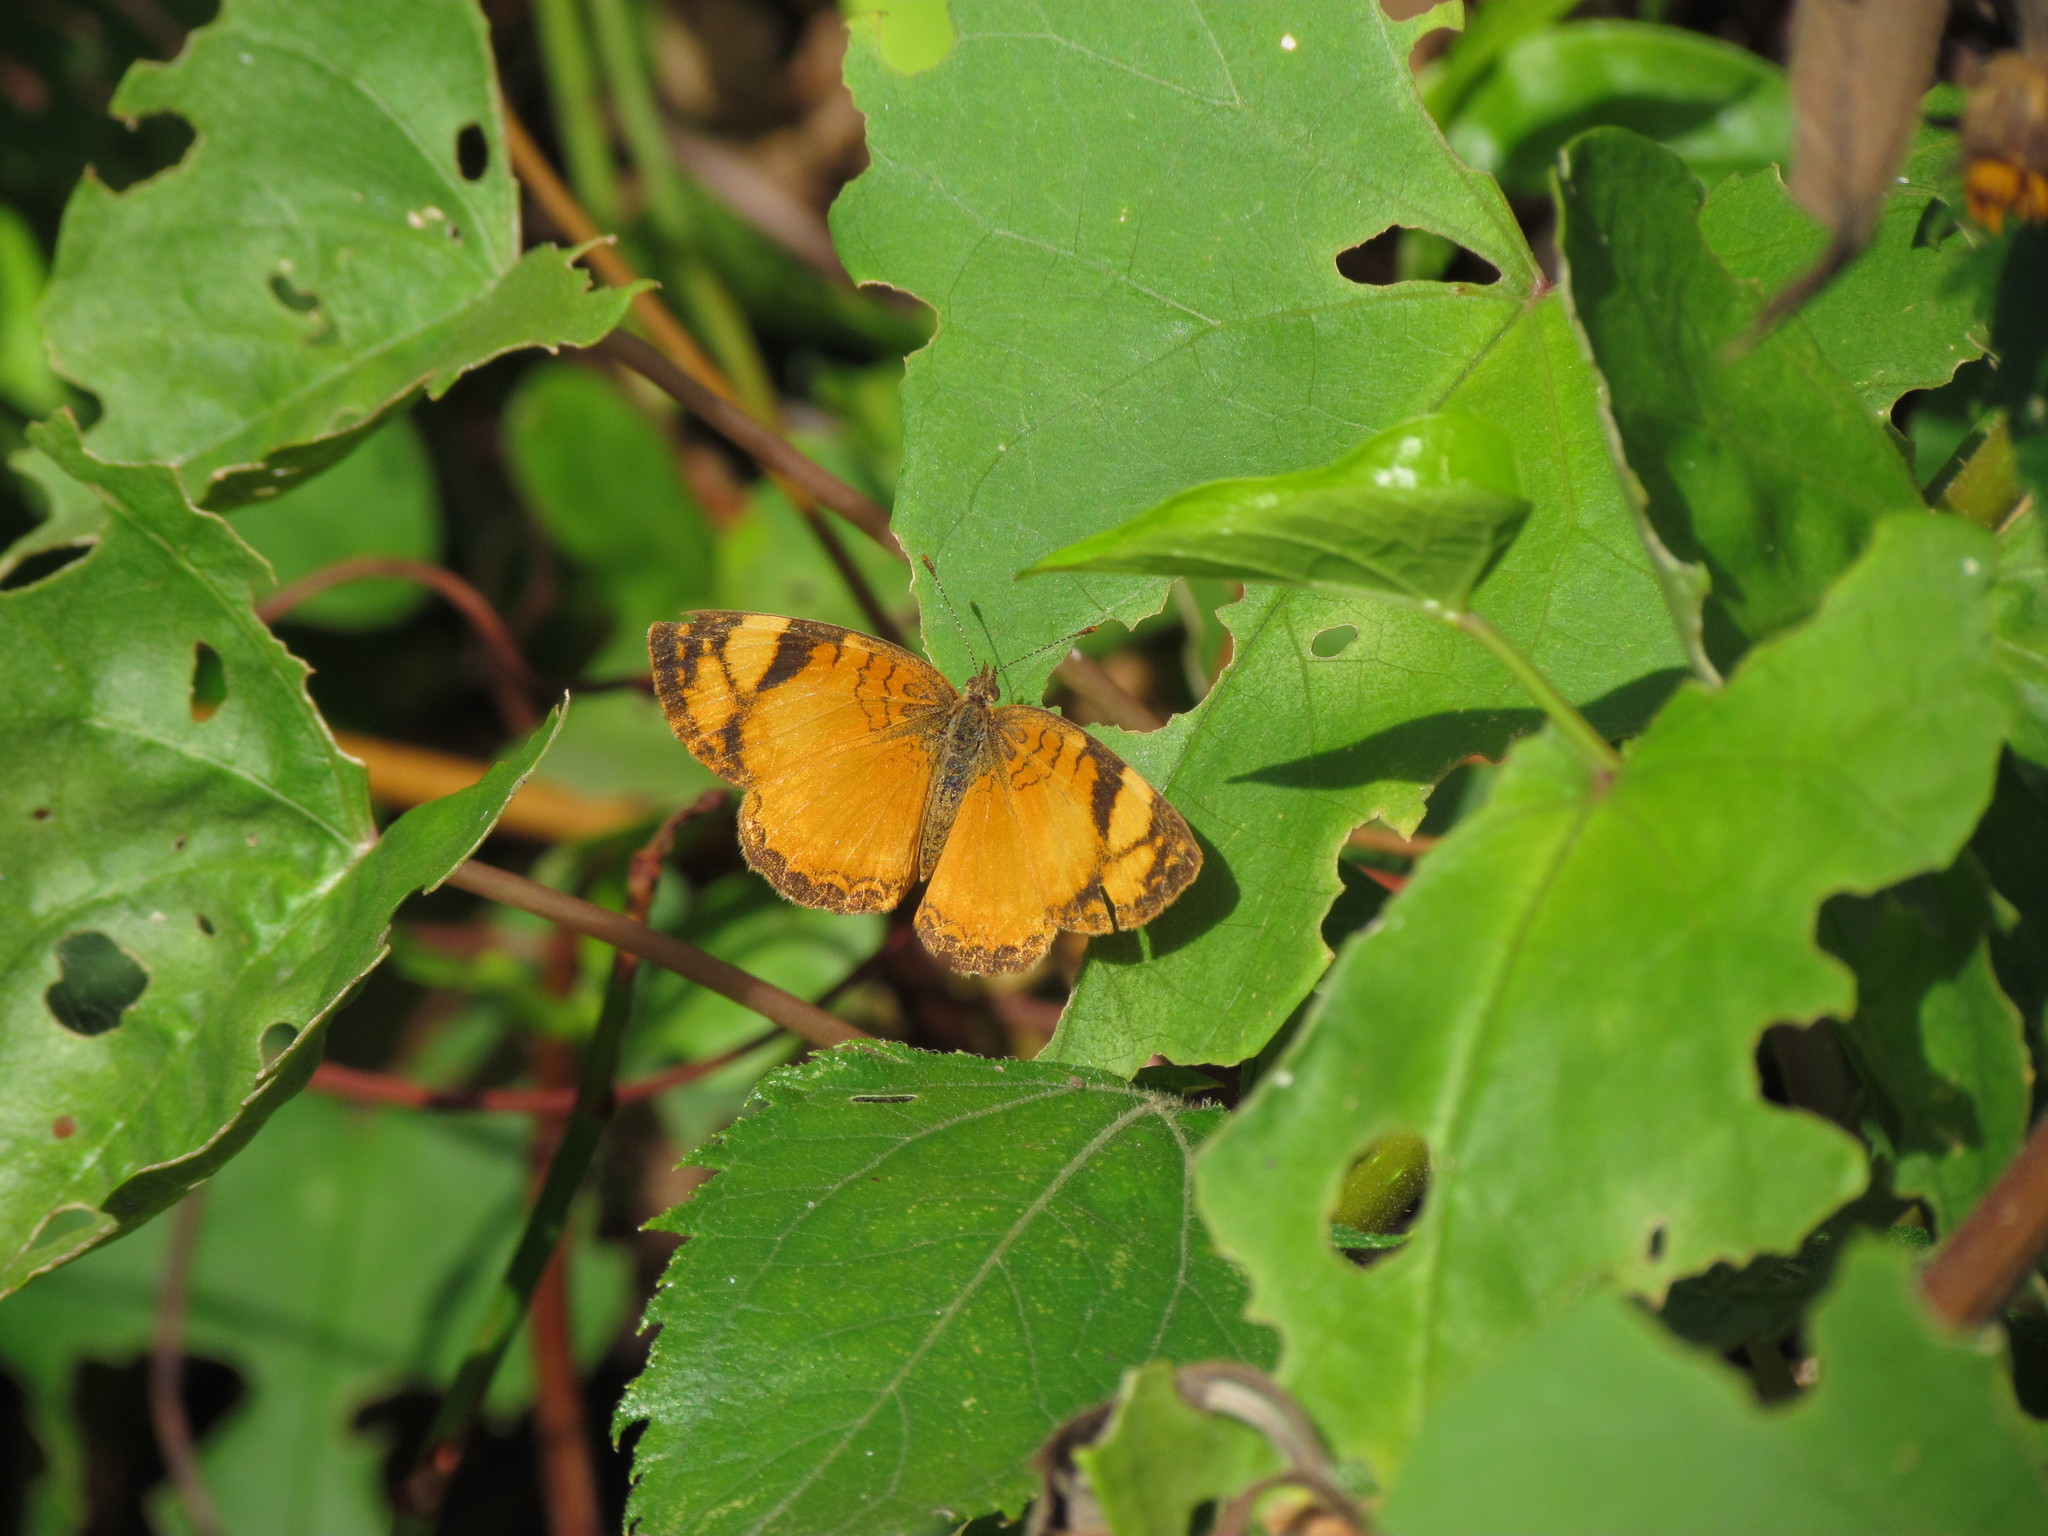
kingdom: Animalia
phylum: Arthropoda
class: Insecta
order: Lepidoptera
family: Nymphalidae
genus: Tegosa
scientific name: Tegosa claudina
